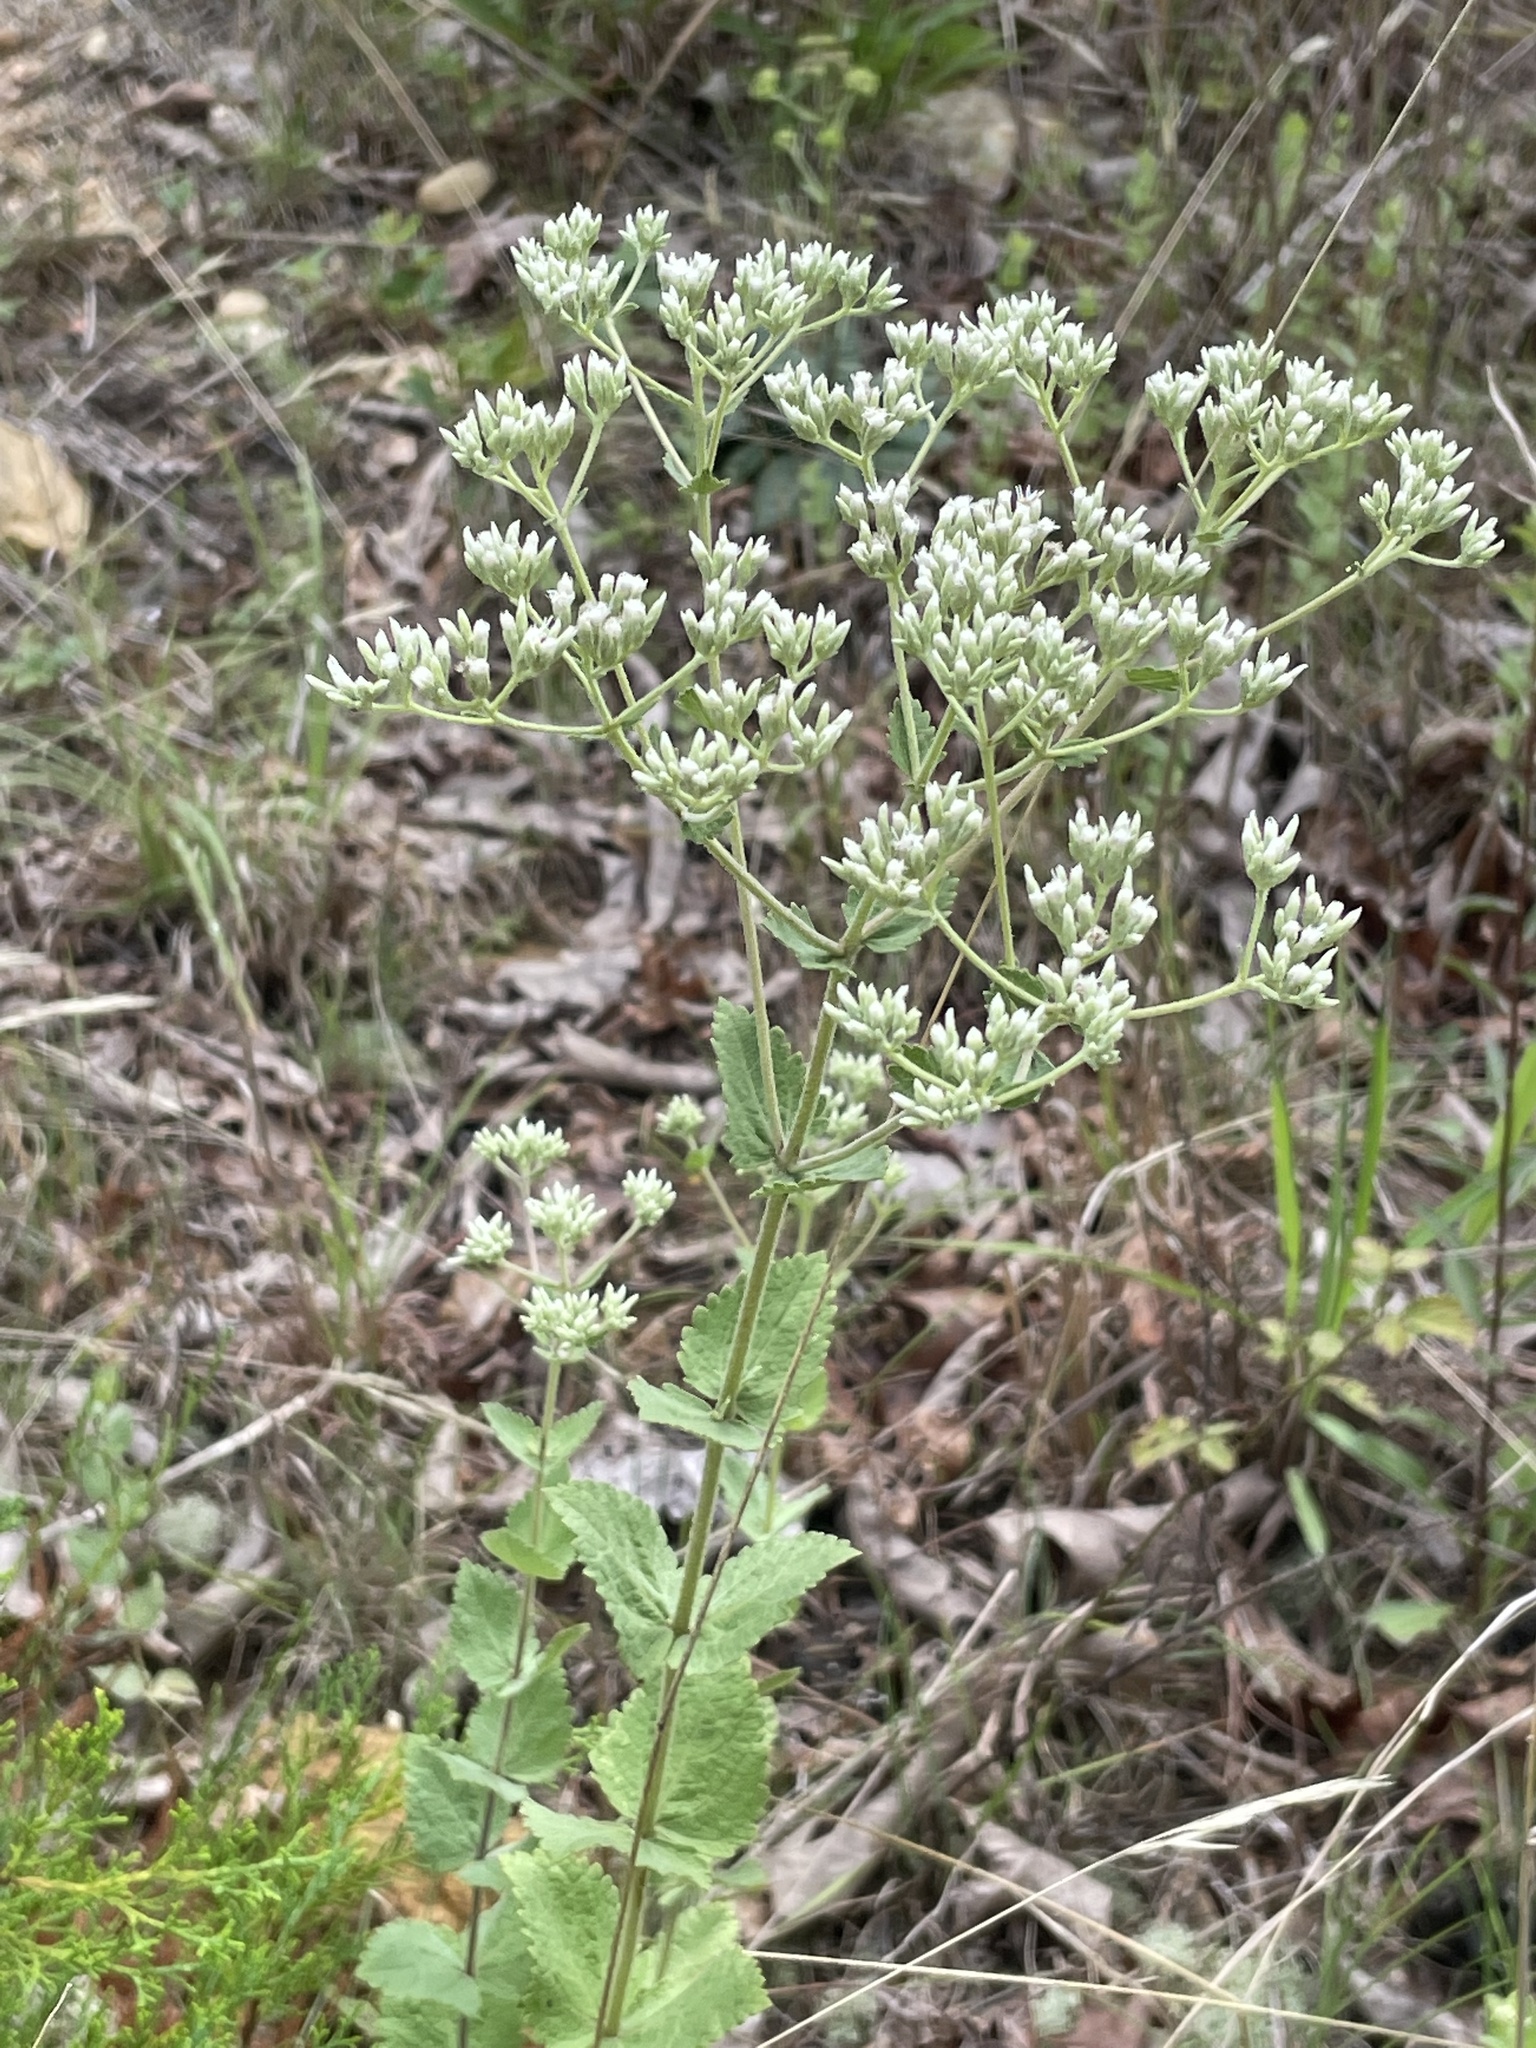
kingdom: Plantae
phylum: Tracheophyta
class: Magnoliopsida
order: Asterales
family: Asteraceae
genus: Eupatorium
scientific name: Eupatorium rotundifolium
